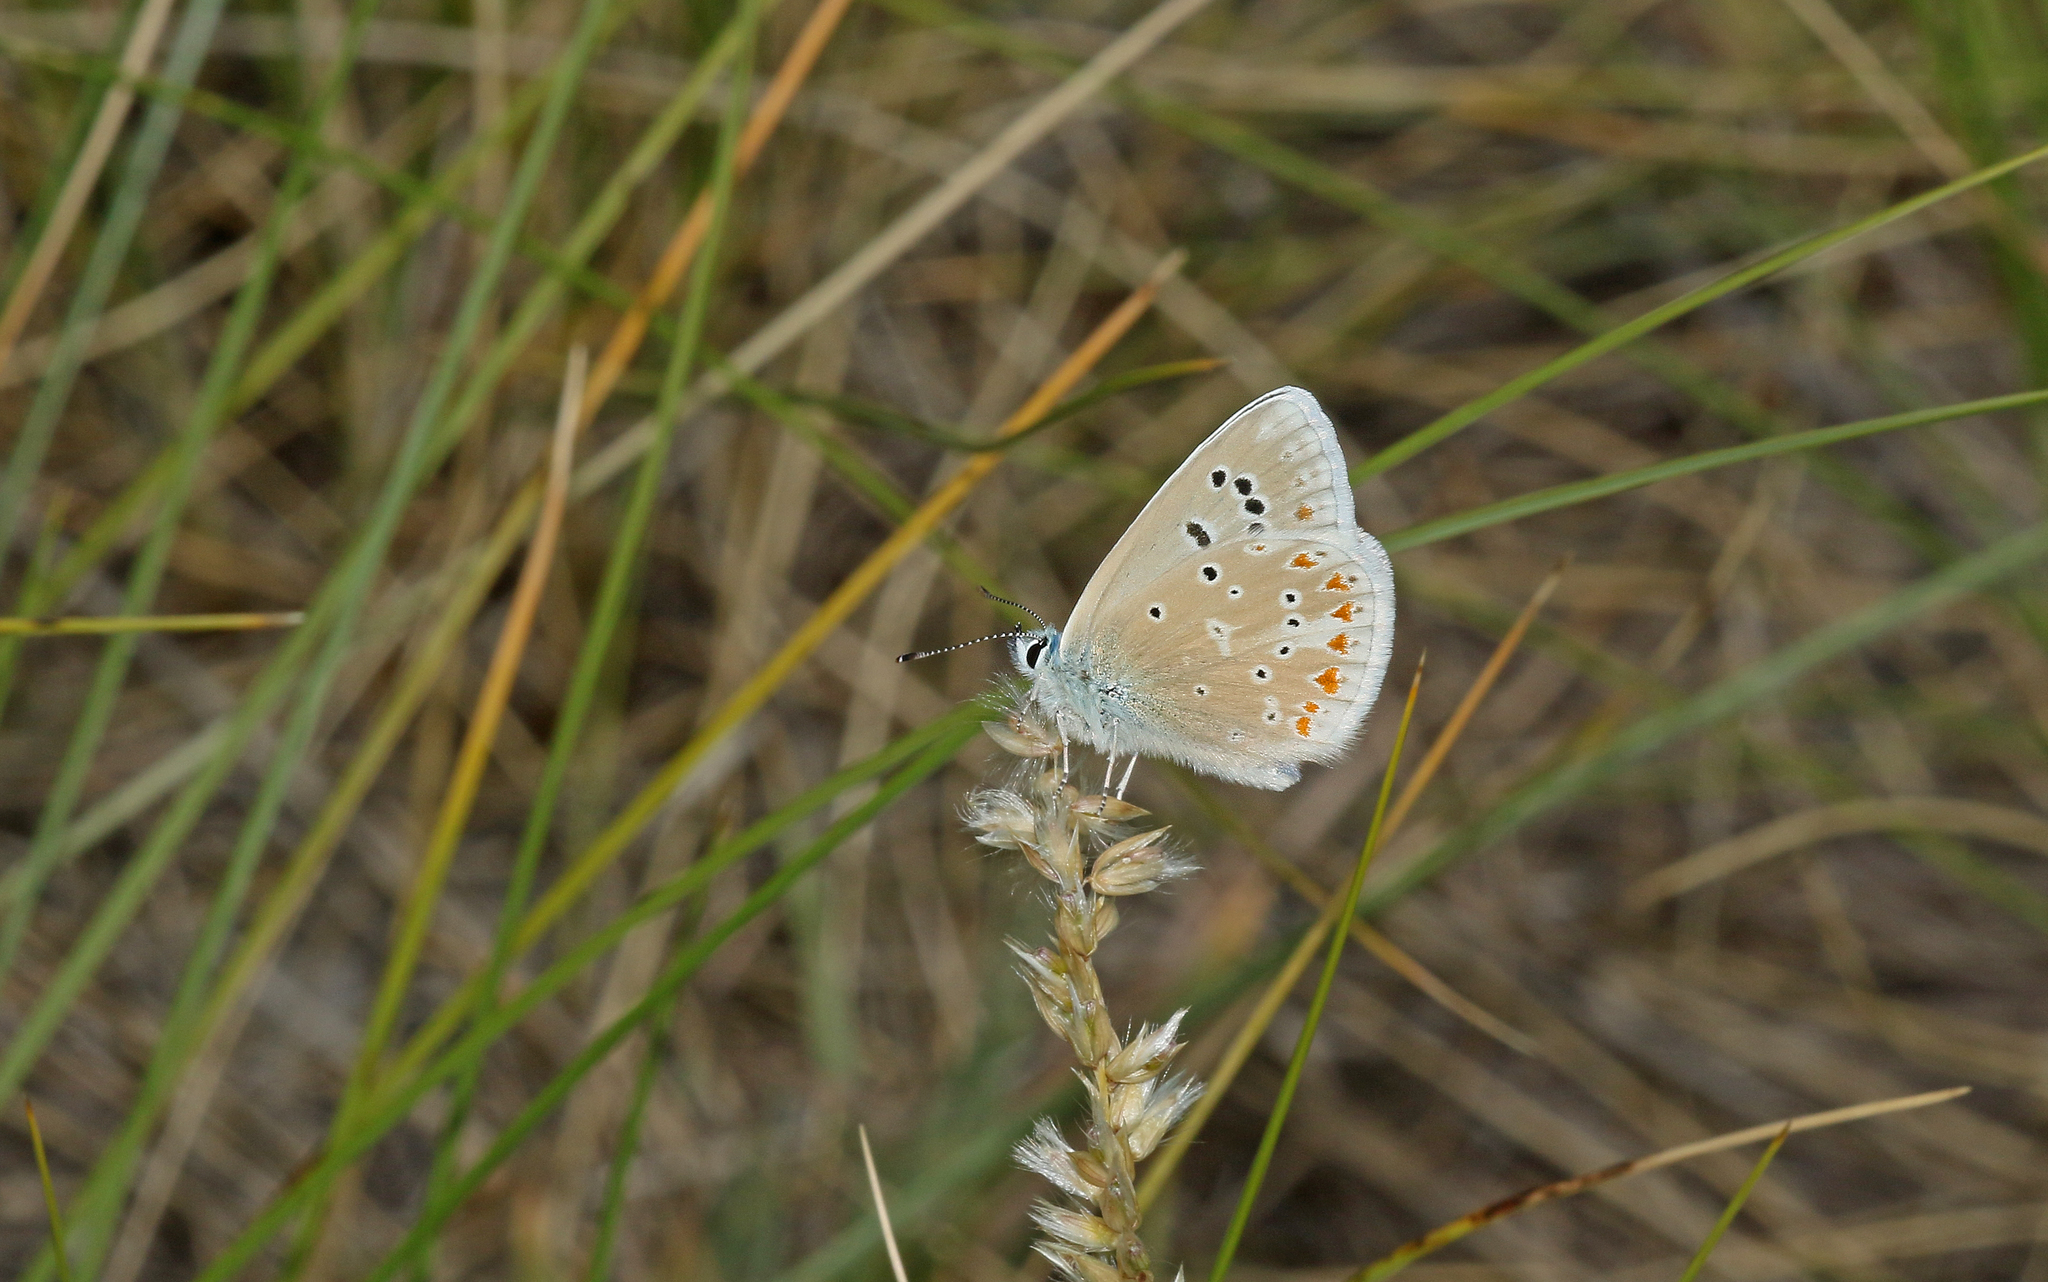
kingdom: Animalia
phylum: Arthropoda
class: Insecta
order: Lepidoptera
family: Lycaenidae
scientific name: Lycaenidae
